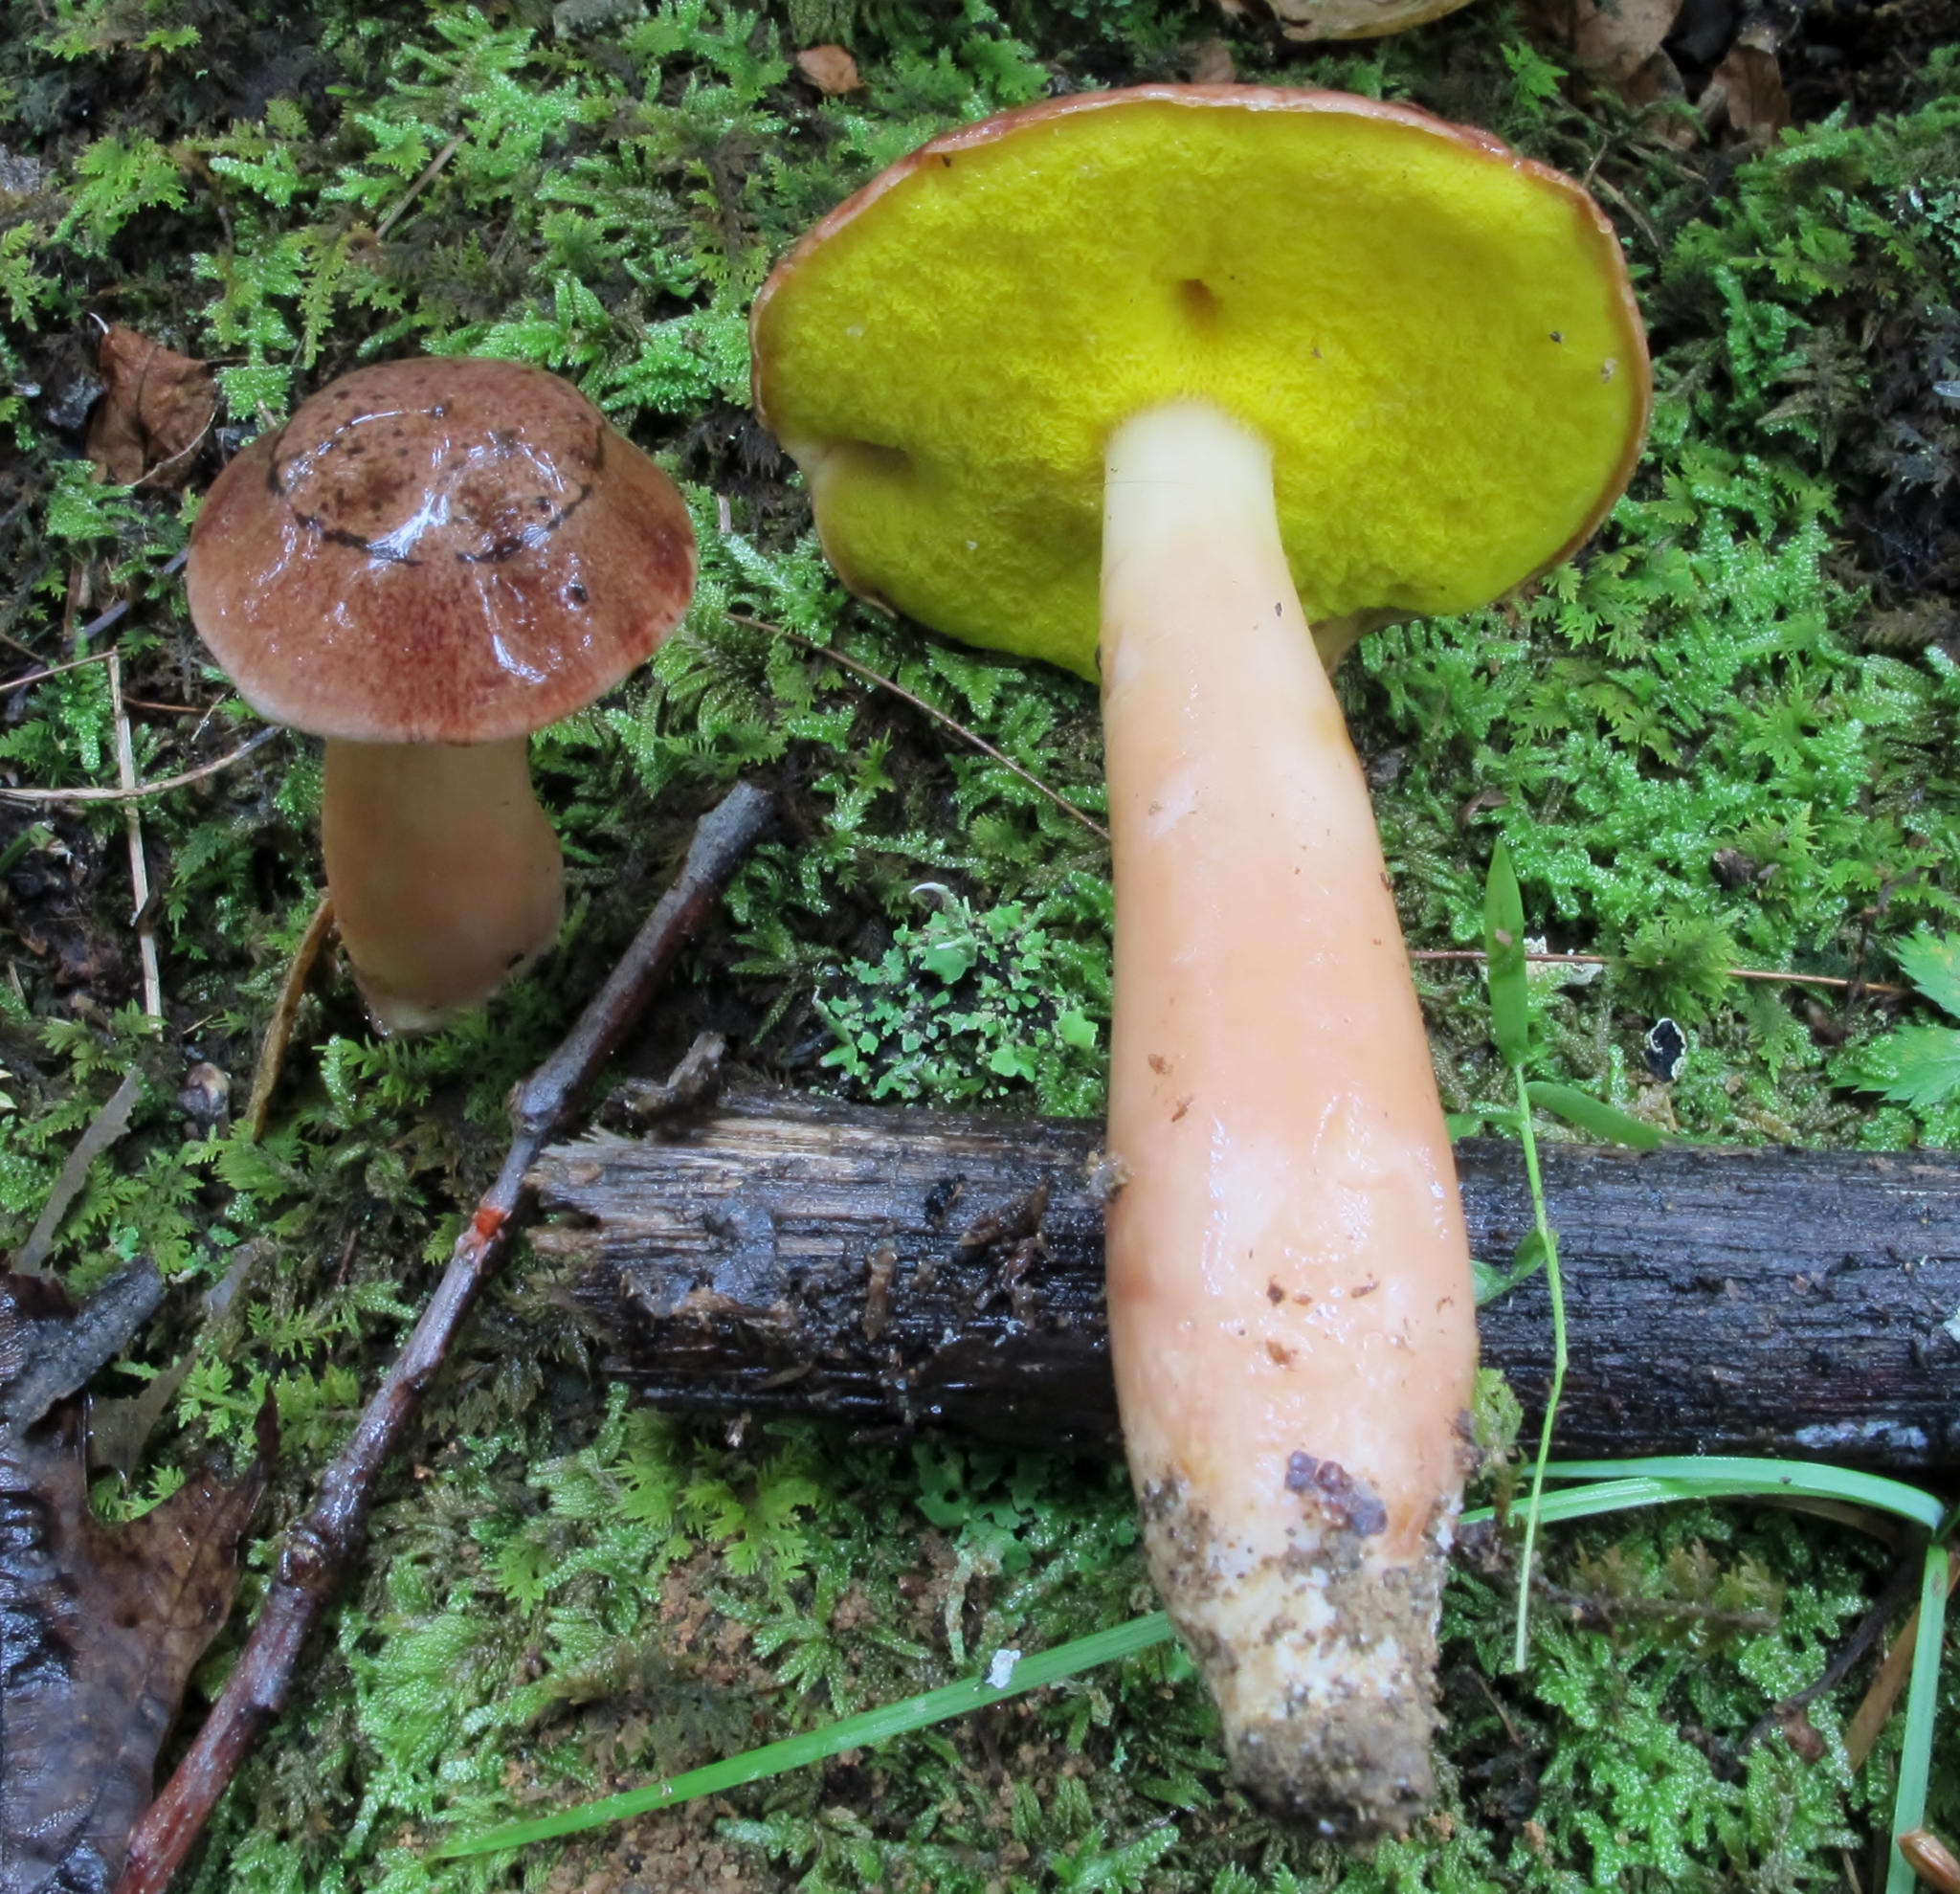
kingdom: Fungi
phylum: Basidiomycota
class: Agaricomycetes
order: Boletales
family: Boletaceae
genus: Aureoboletus
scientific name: Aureoboletus auriporus
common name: Sour gold-pored bolete
